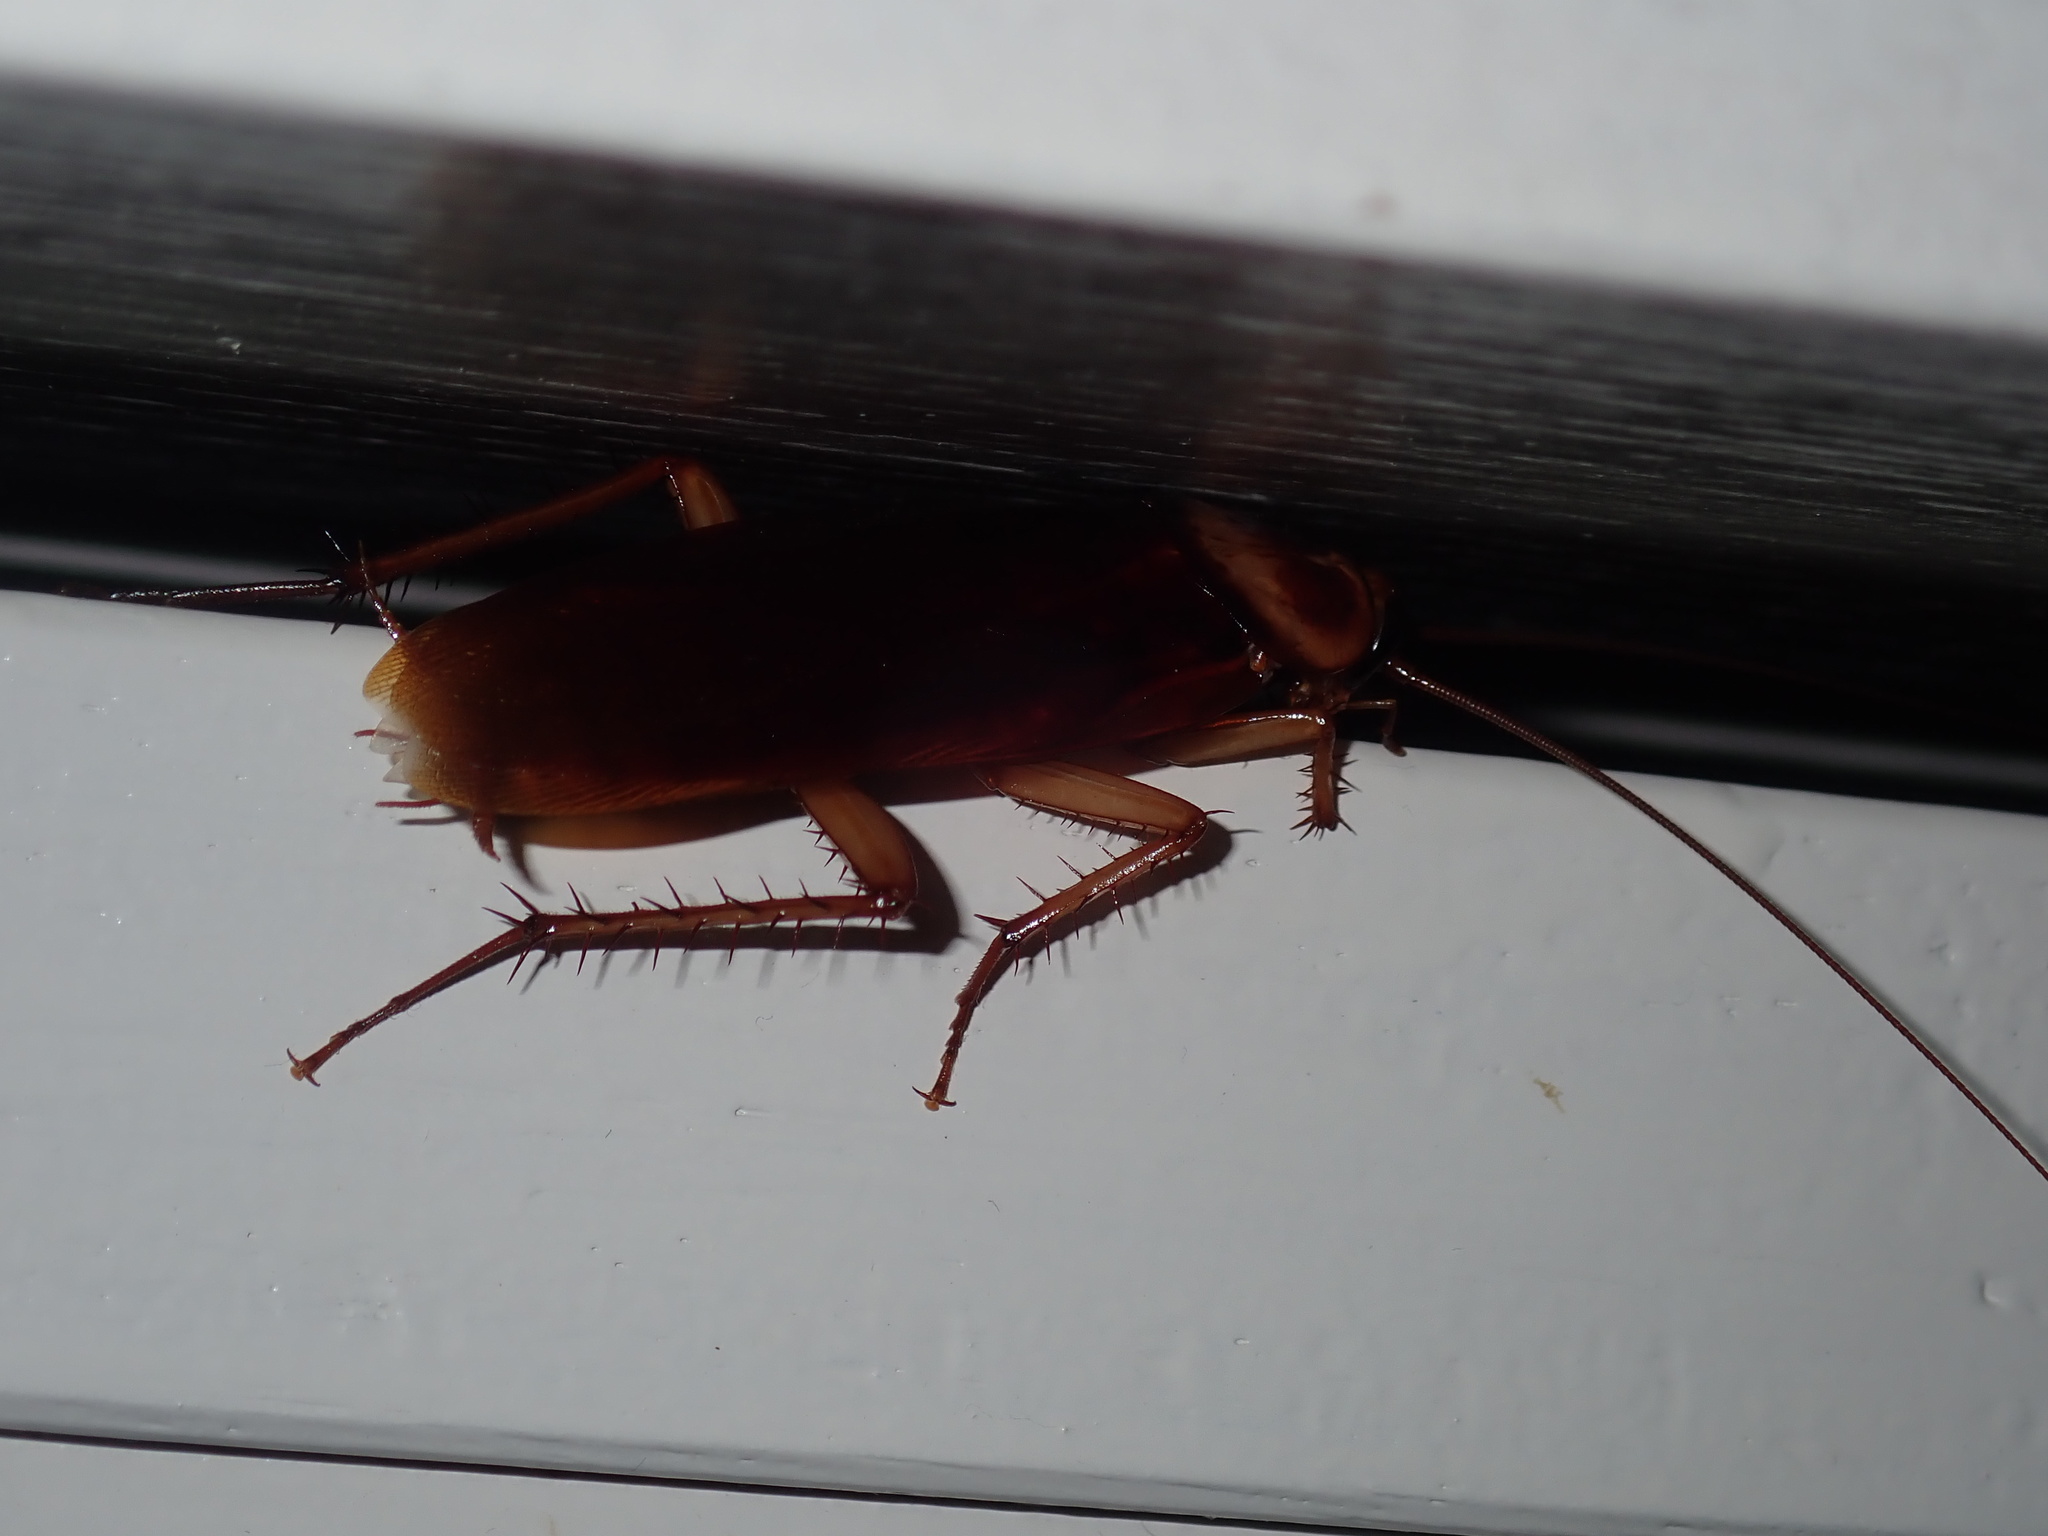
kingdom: Animalia
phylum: Arthropoda
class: Insecta
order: Blattodea
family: Blattidae
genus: Periplaneta
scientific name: Periplaneta americana
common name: American cockroach
